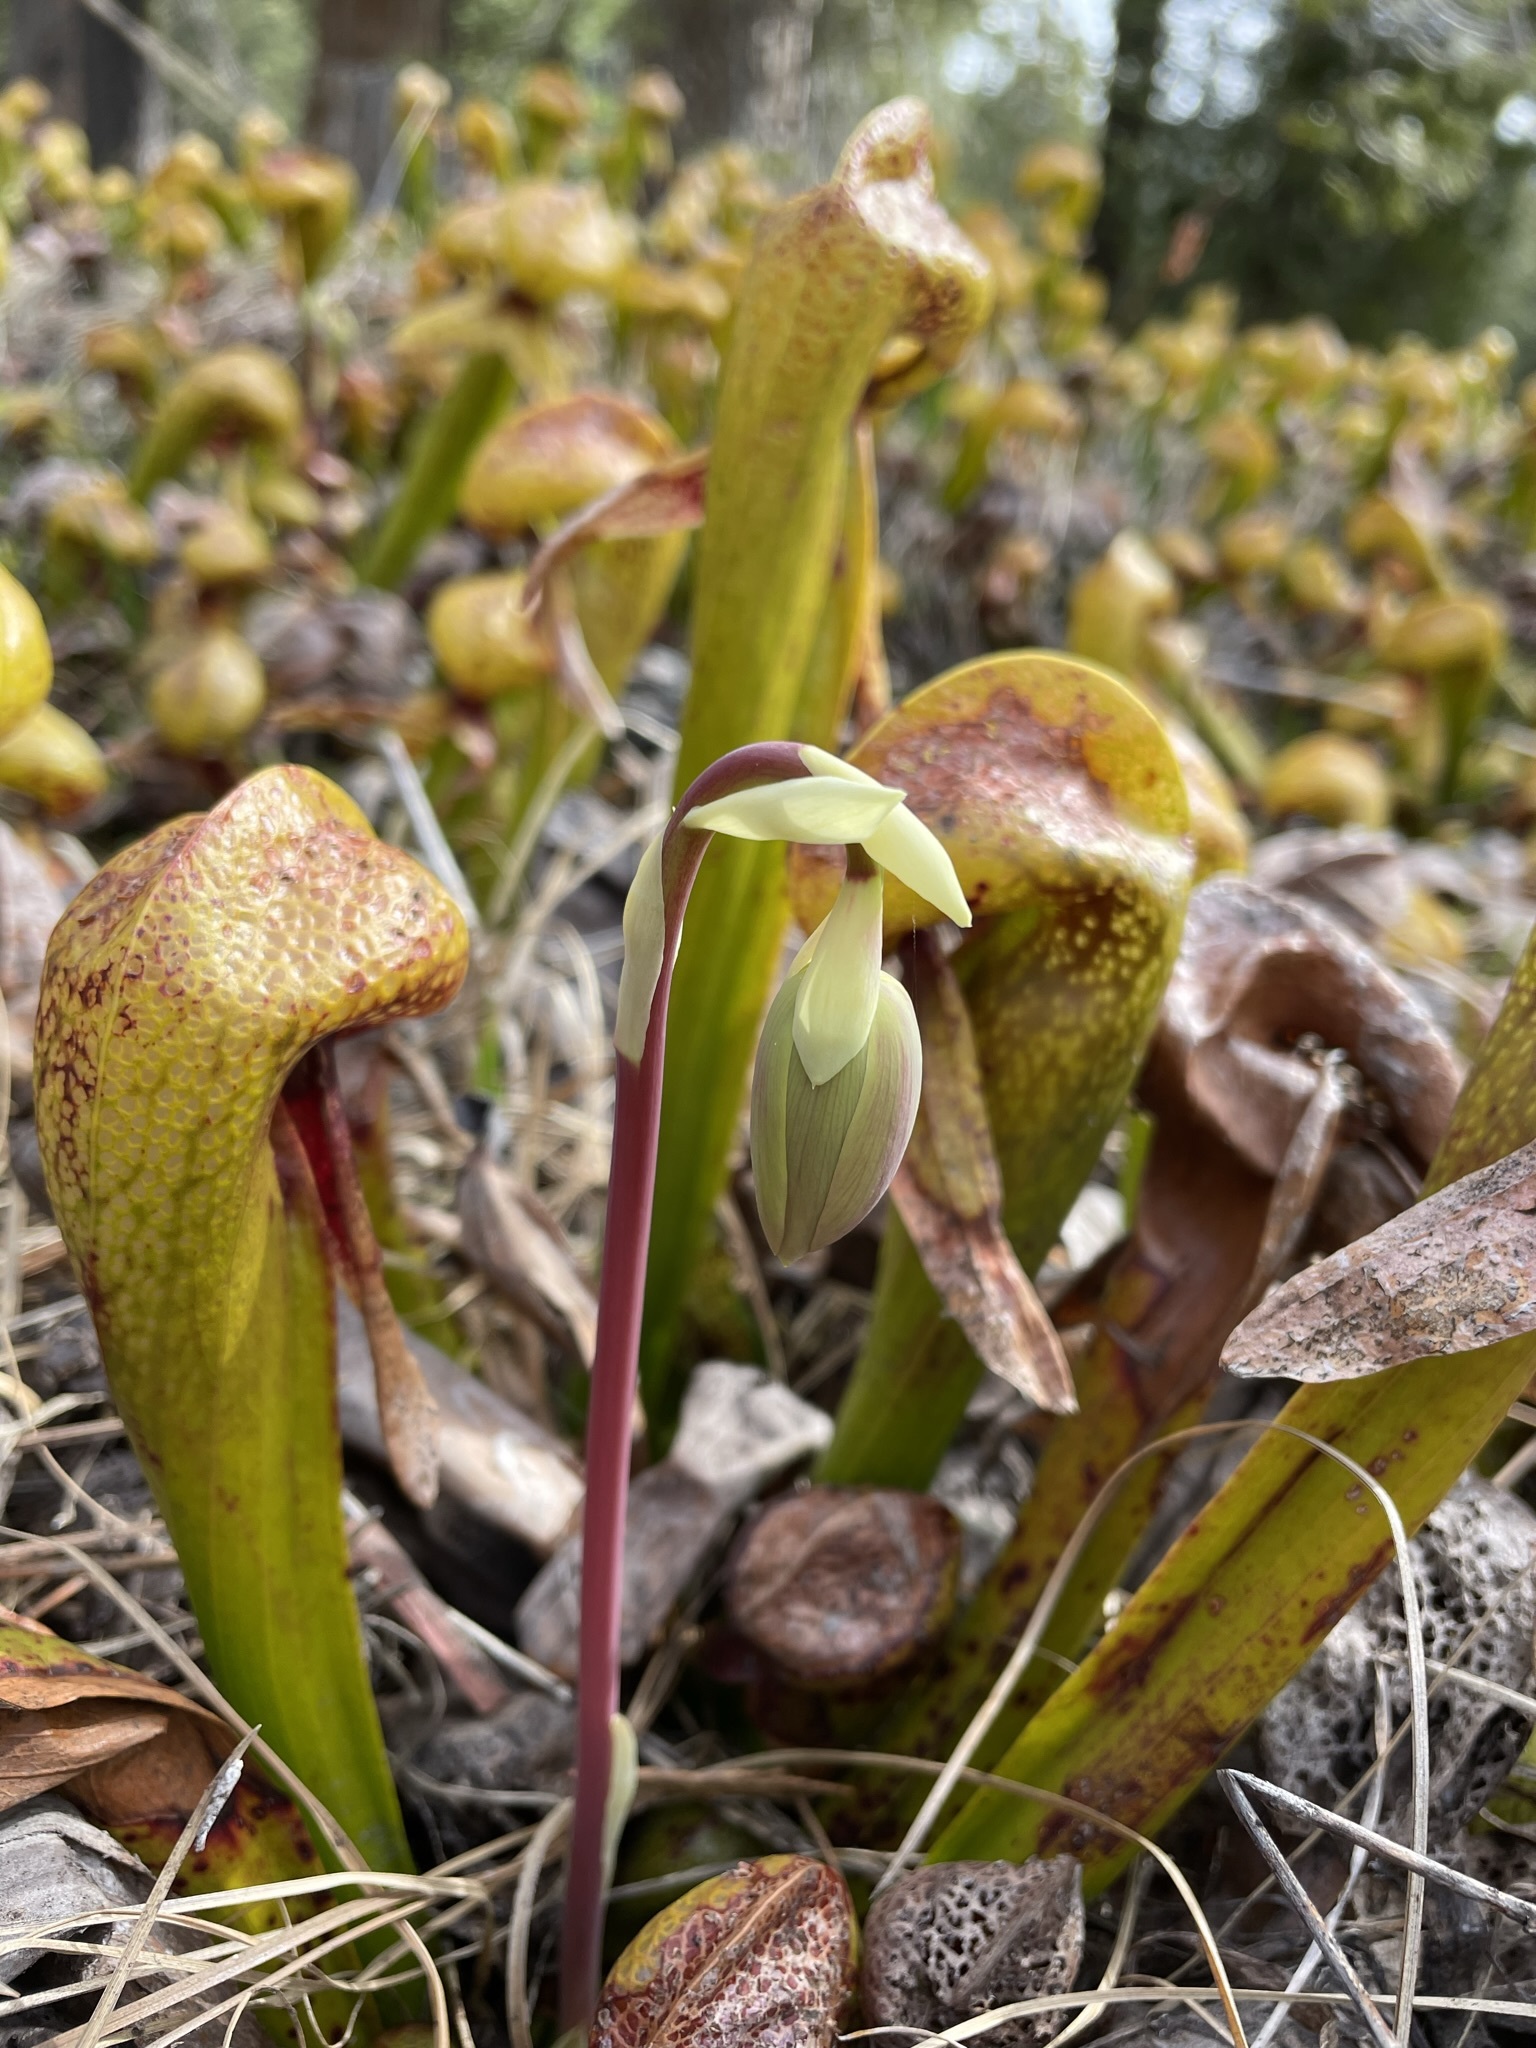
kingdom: Plantae
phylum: Tracheophyta
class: Magnoliopsida
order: Ericales
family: Sarraceniaceae
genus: Darlingtonia
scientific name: Darlingtonia californica
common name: California pitcher plant
